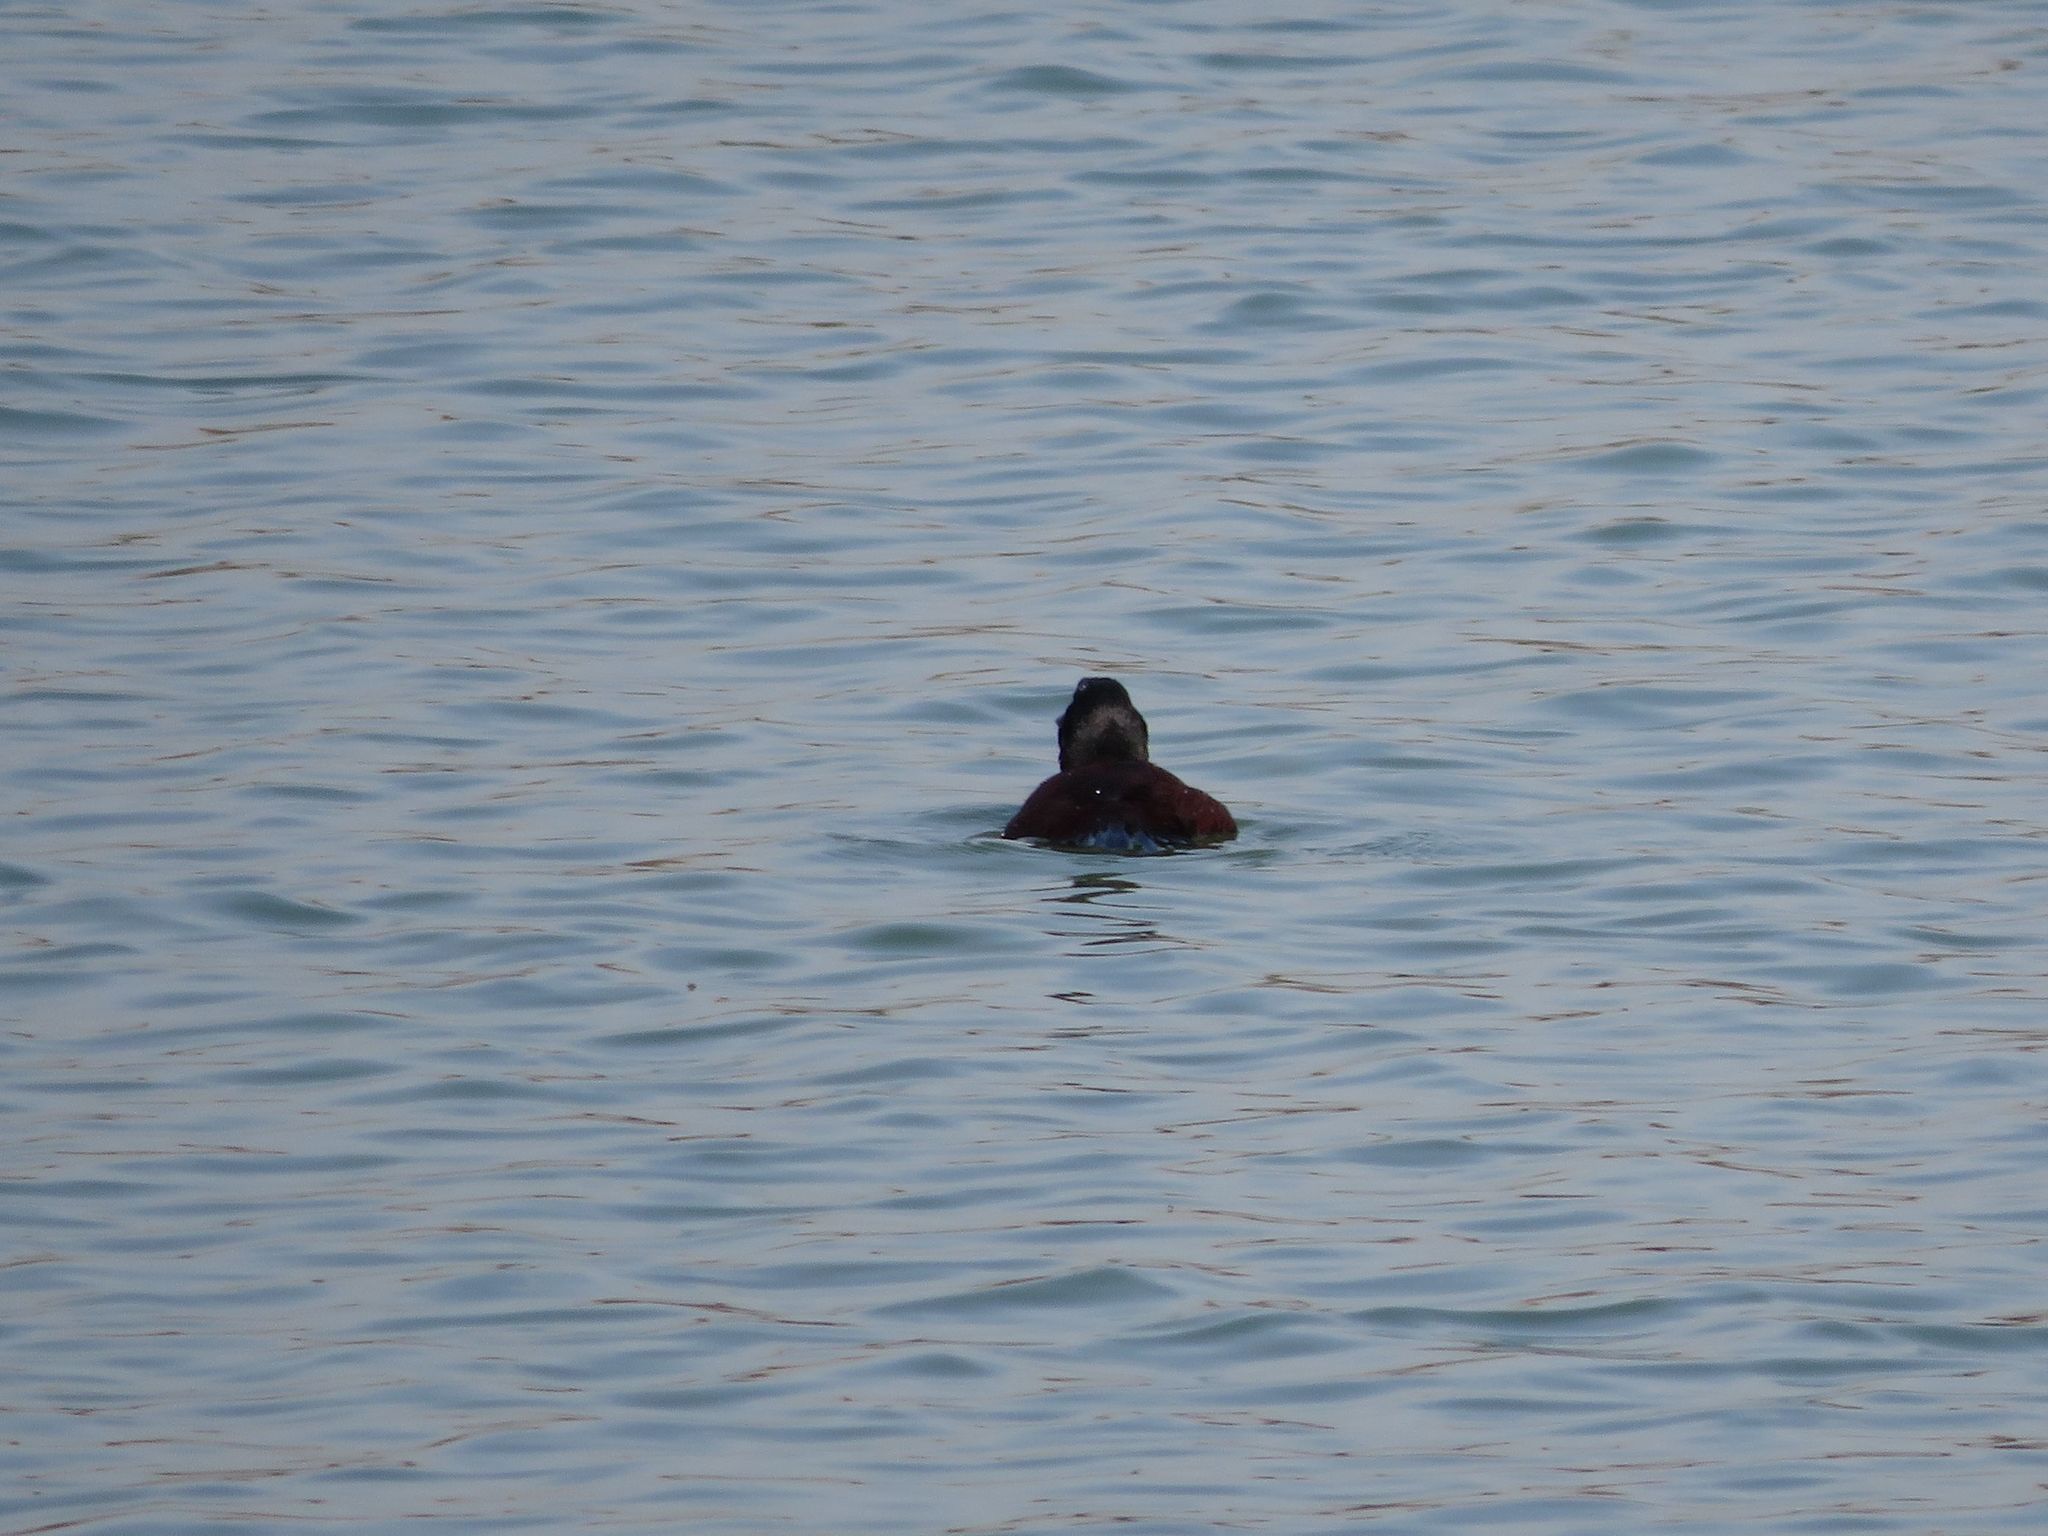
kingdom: Animalia
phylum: Chordata
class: Aves
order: Anseriformes
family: Anatidae
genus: Oxyura
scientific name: Oxyura vittata
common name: Lake duck
